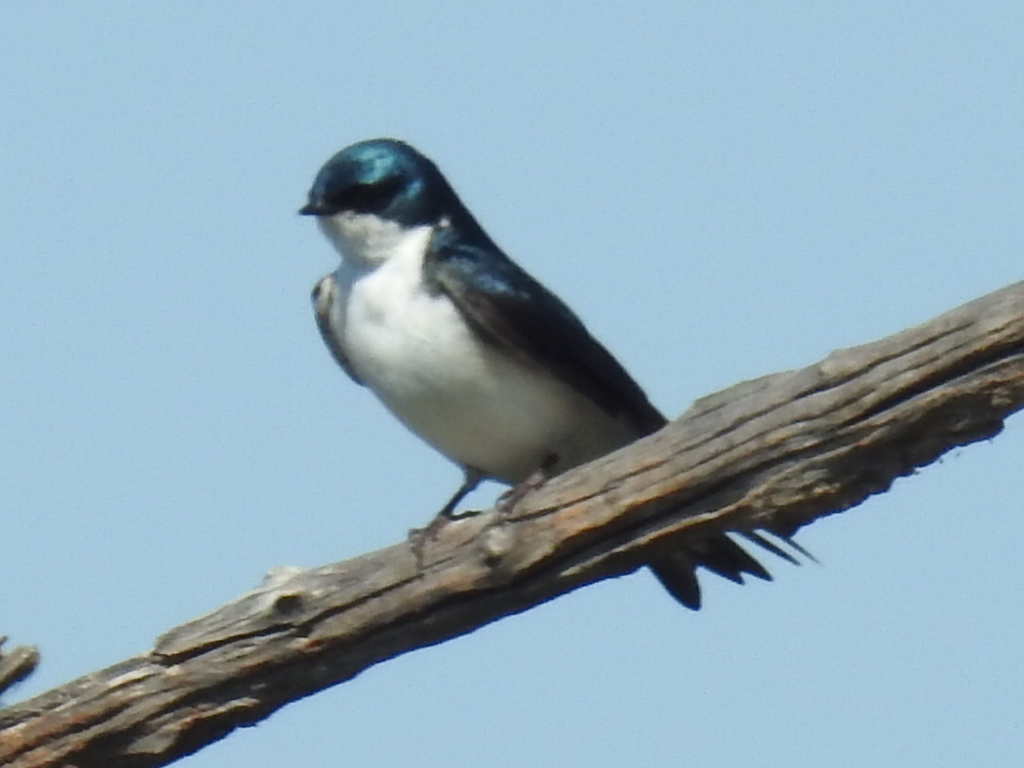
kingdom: Animalia
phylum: Chordata
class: Aves
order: Passeriformes
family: Hirundinidae
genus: Tachycineta
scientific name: Tachycineta bicolor
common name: Tree swallow
